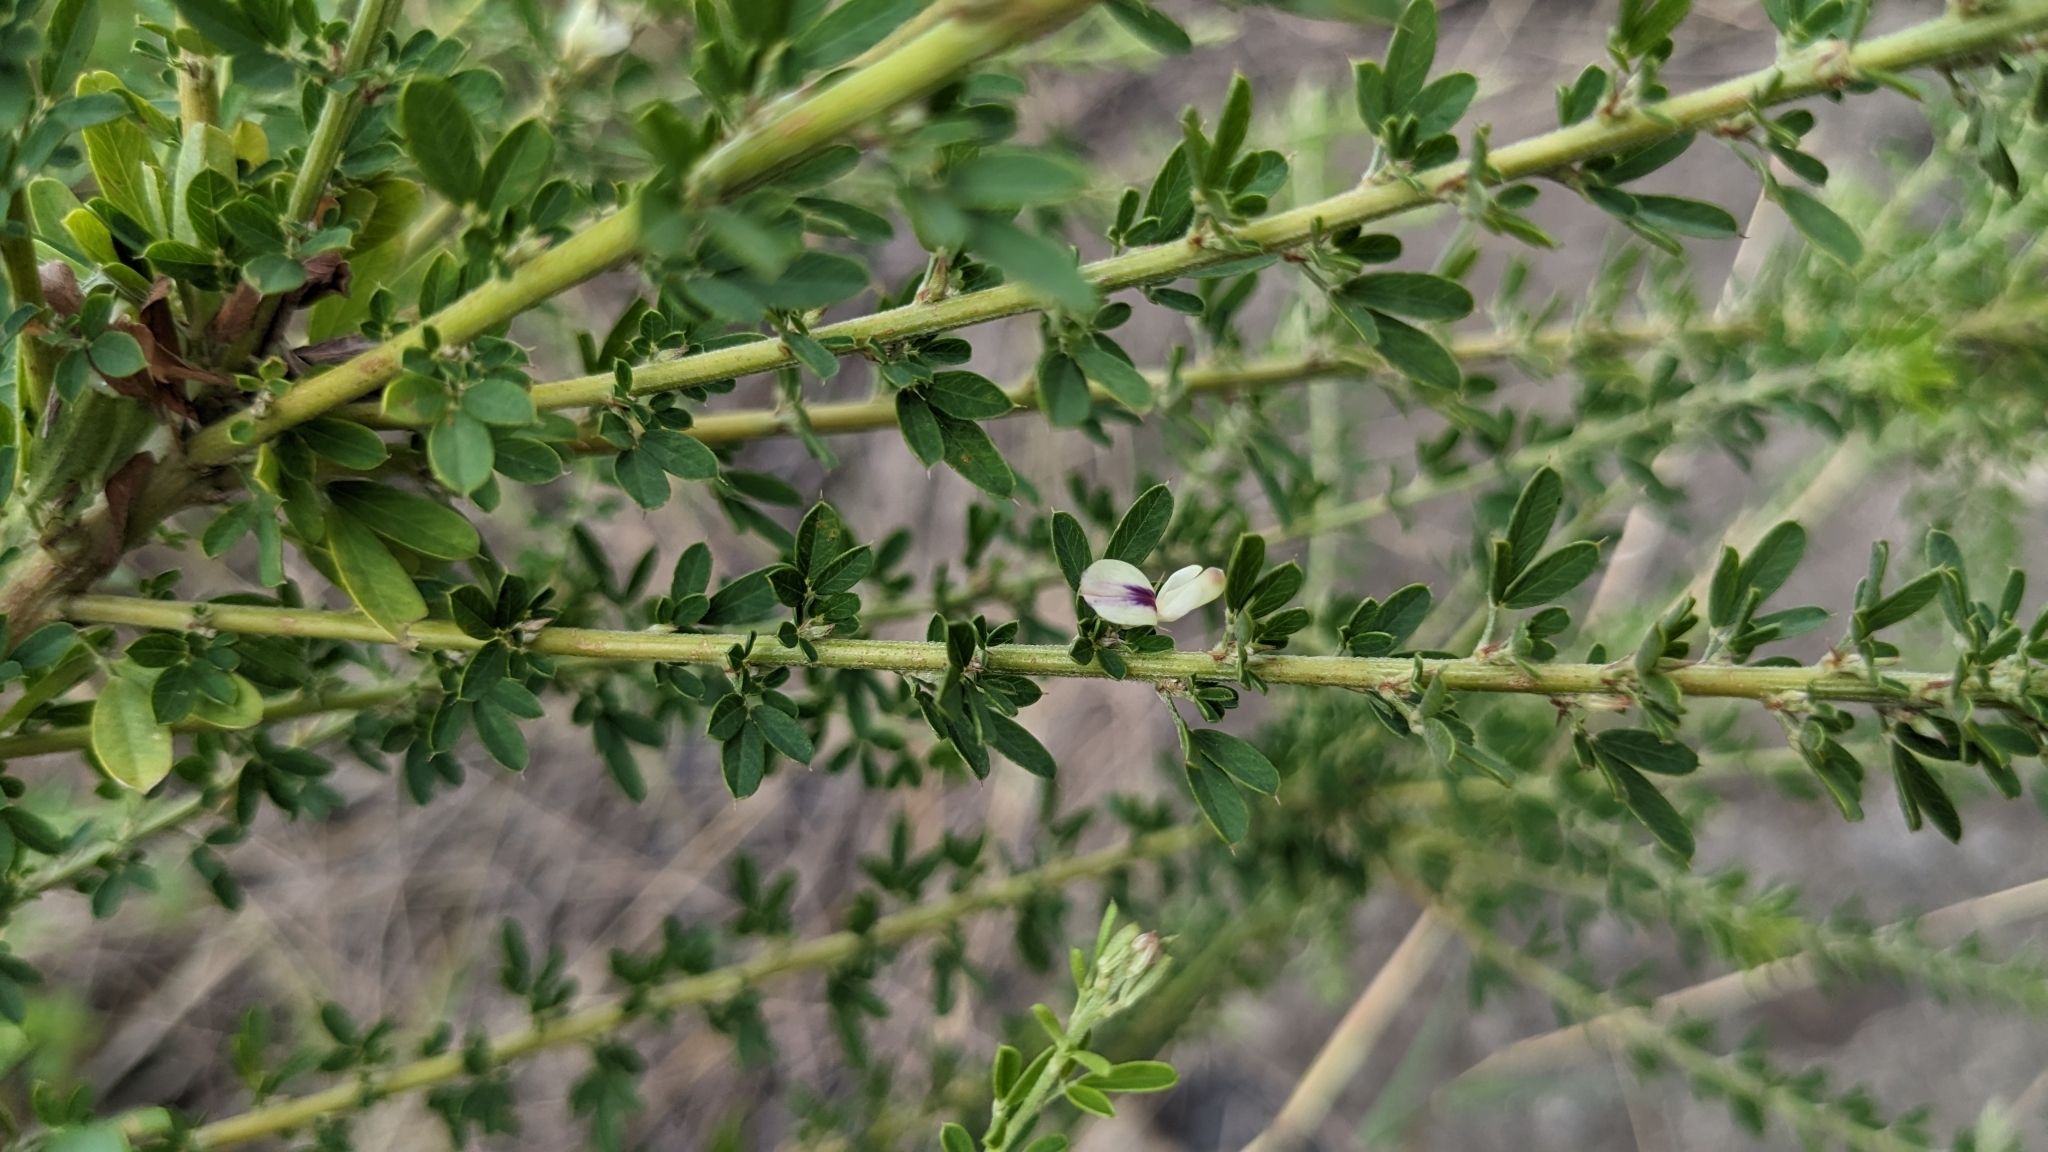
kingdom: Plantae
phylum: Tracheophyta
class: Magnoliopsida
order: Fabales
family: Fabaceae
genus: Lespedeza
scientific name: Lespedeza cuneata
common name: Chinese bush-clover
